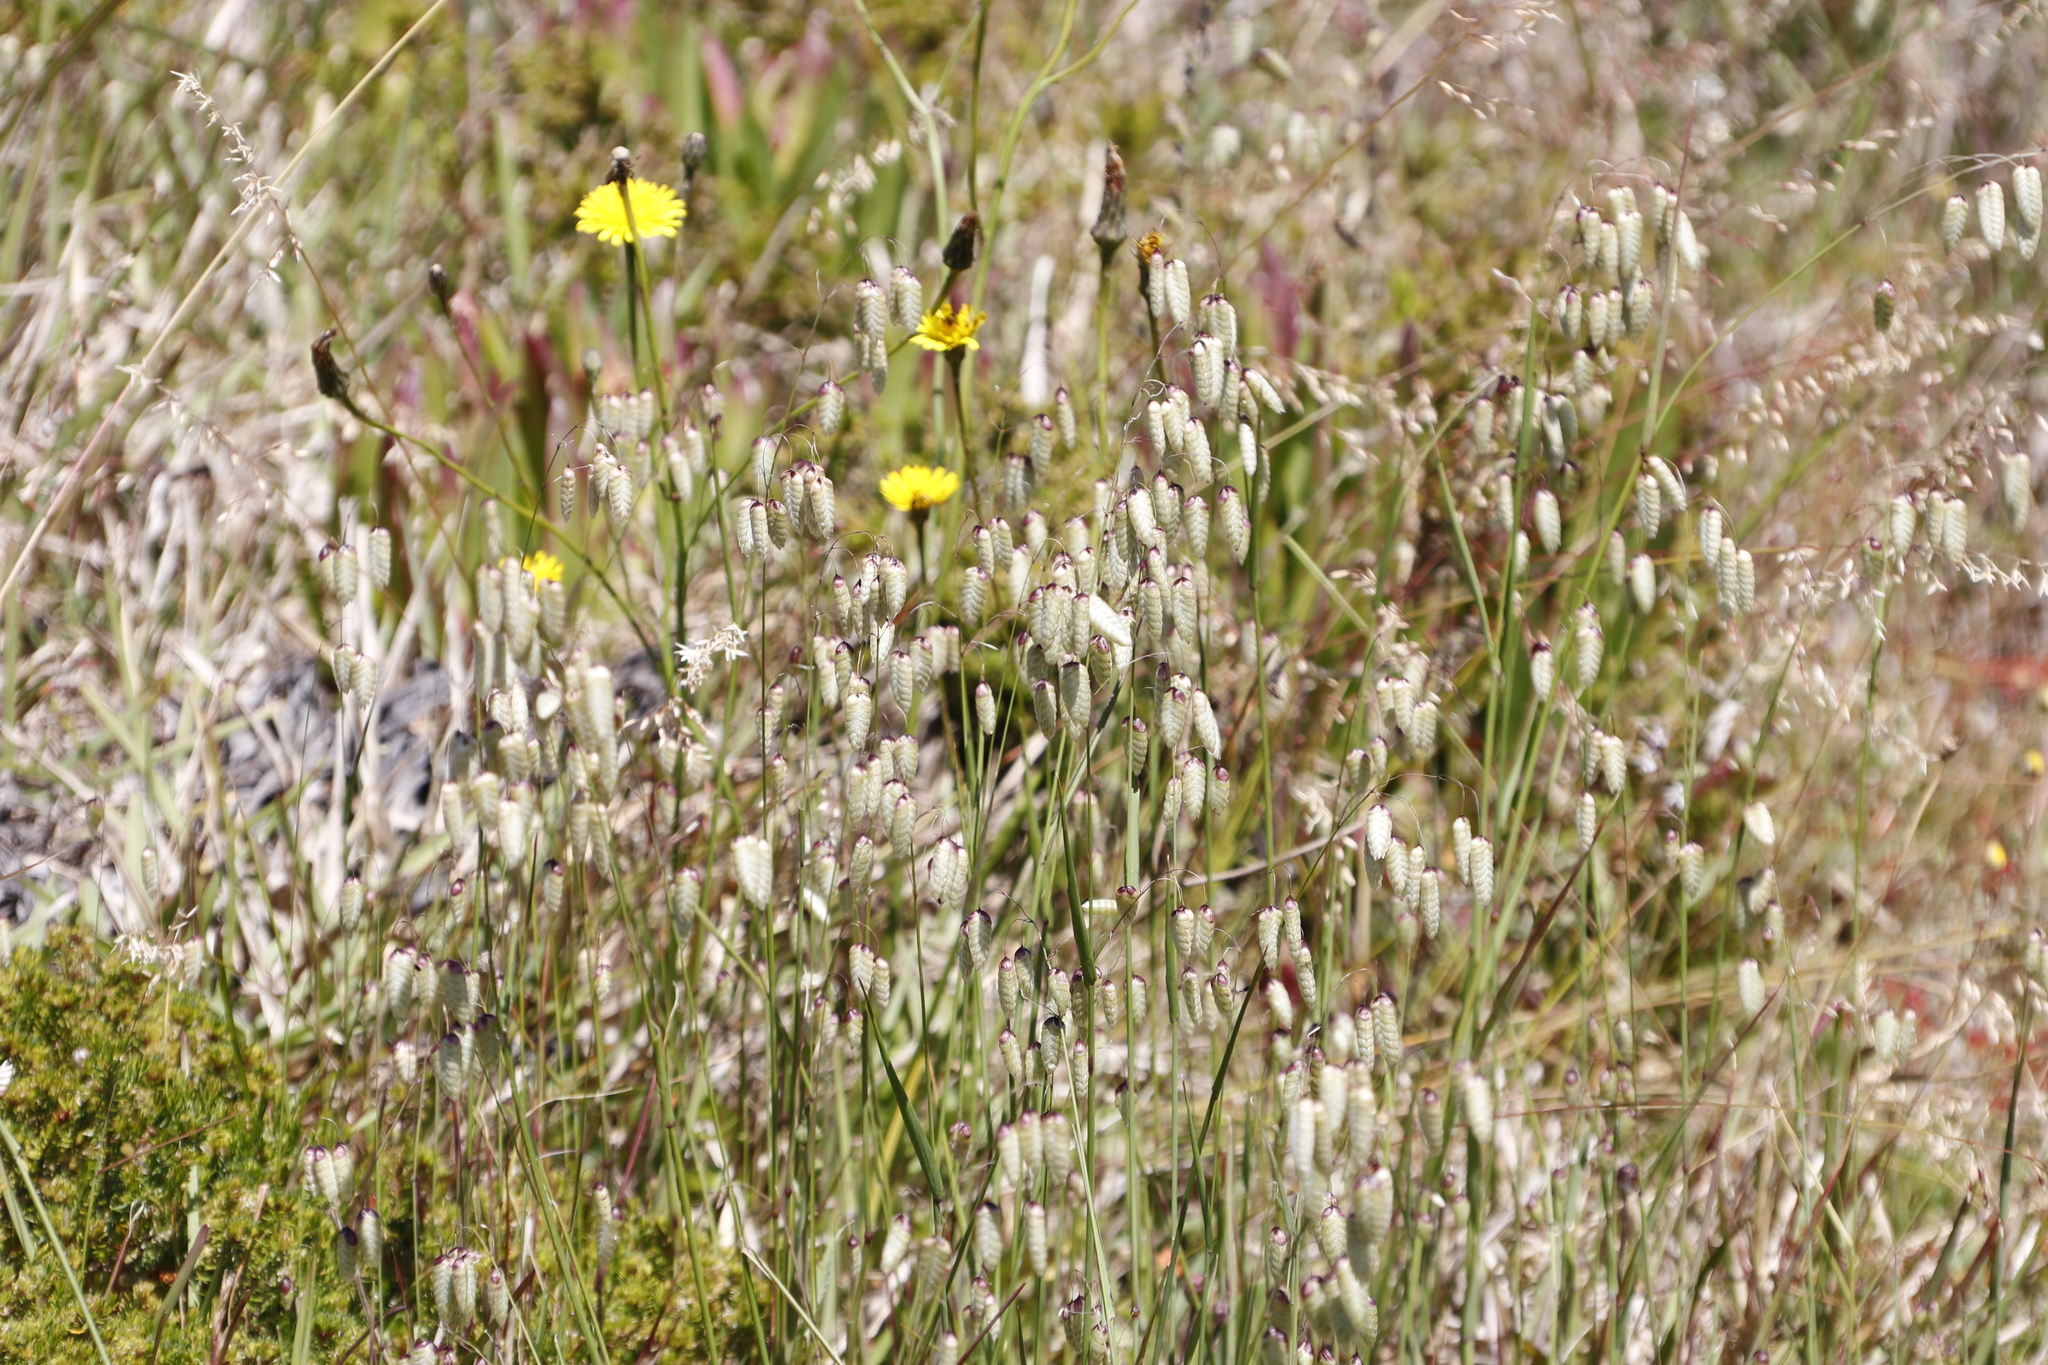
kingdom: Plantae
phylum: Tracheophyta
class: Liliopsida
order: Poales
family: Poaceae
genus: Briza
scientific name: Briza maxima
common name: Big quakinggrass
